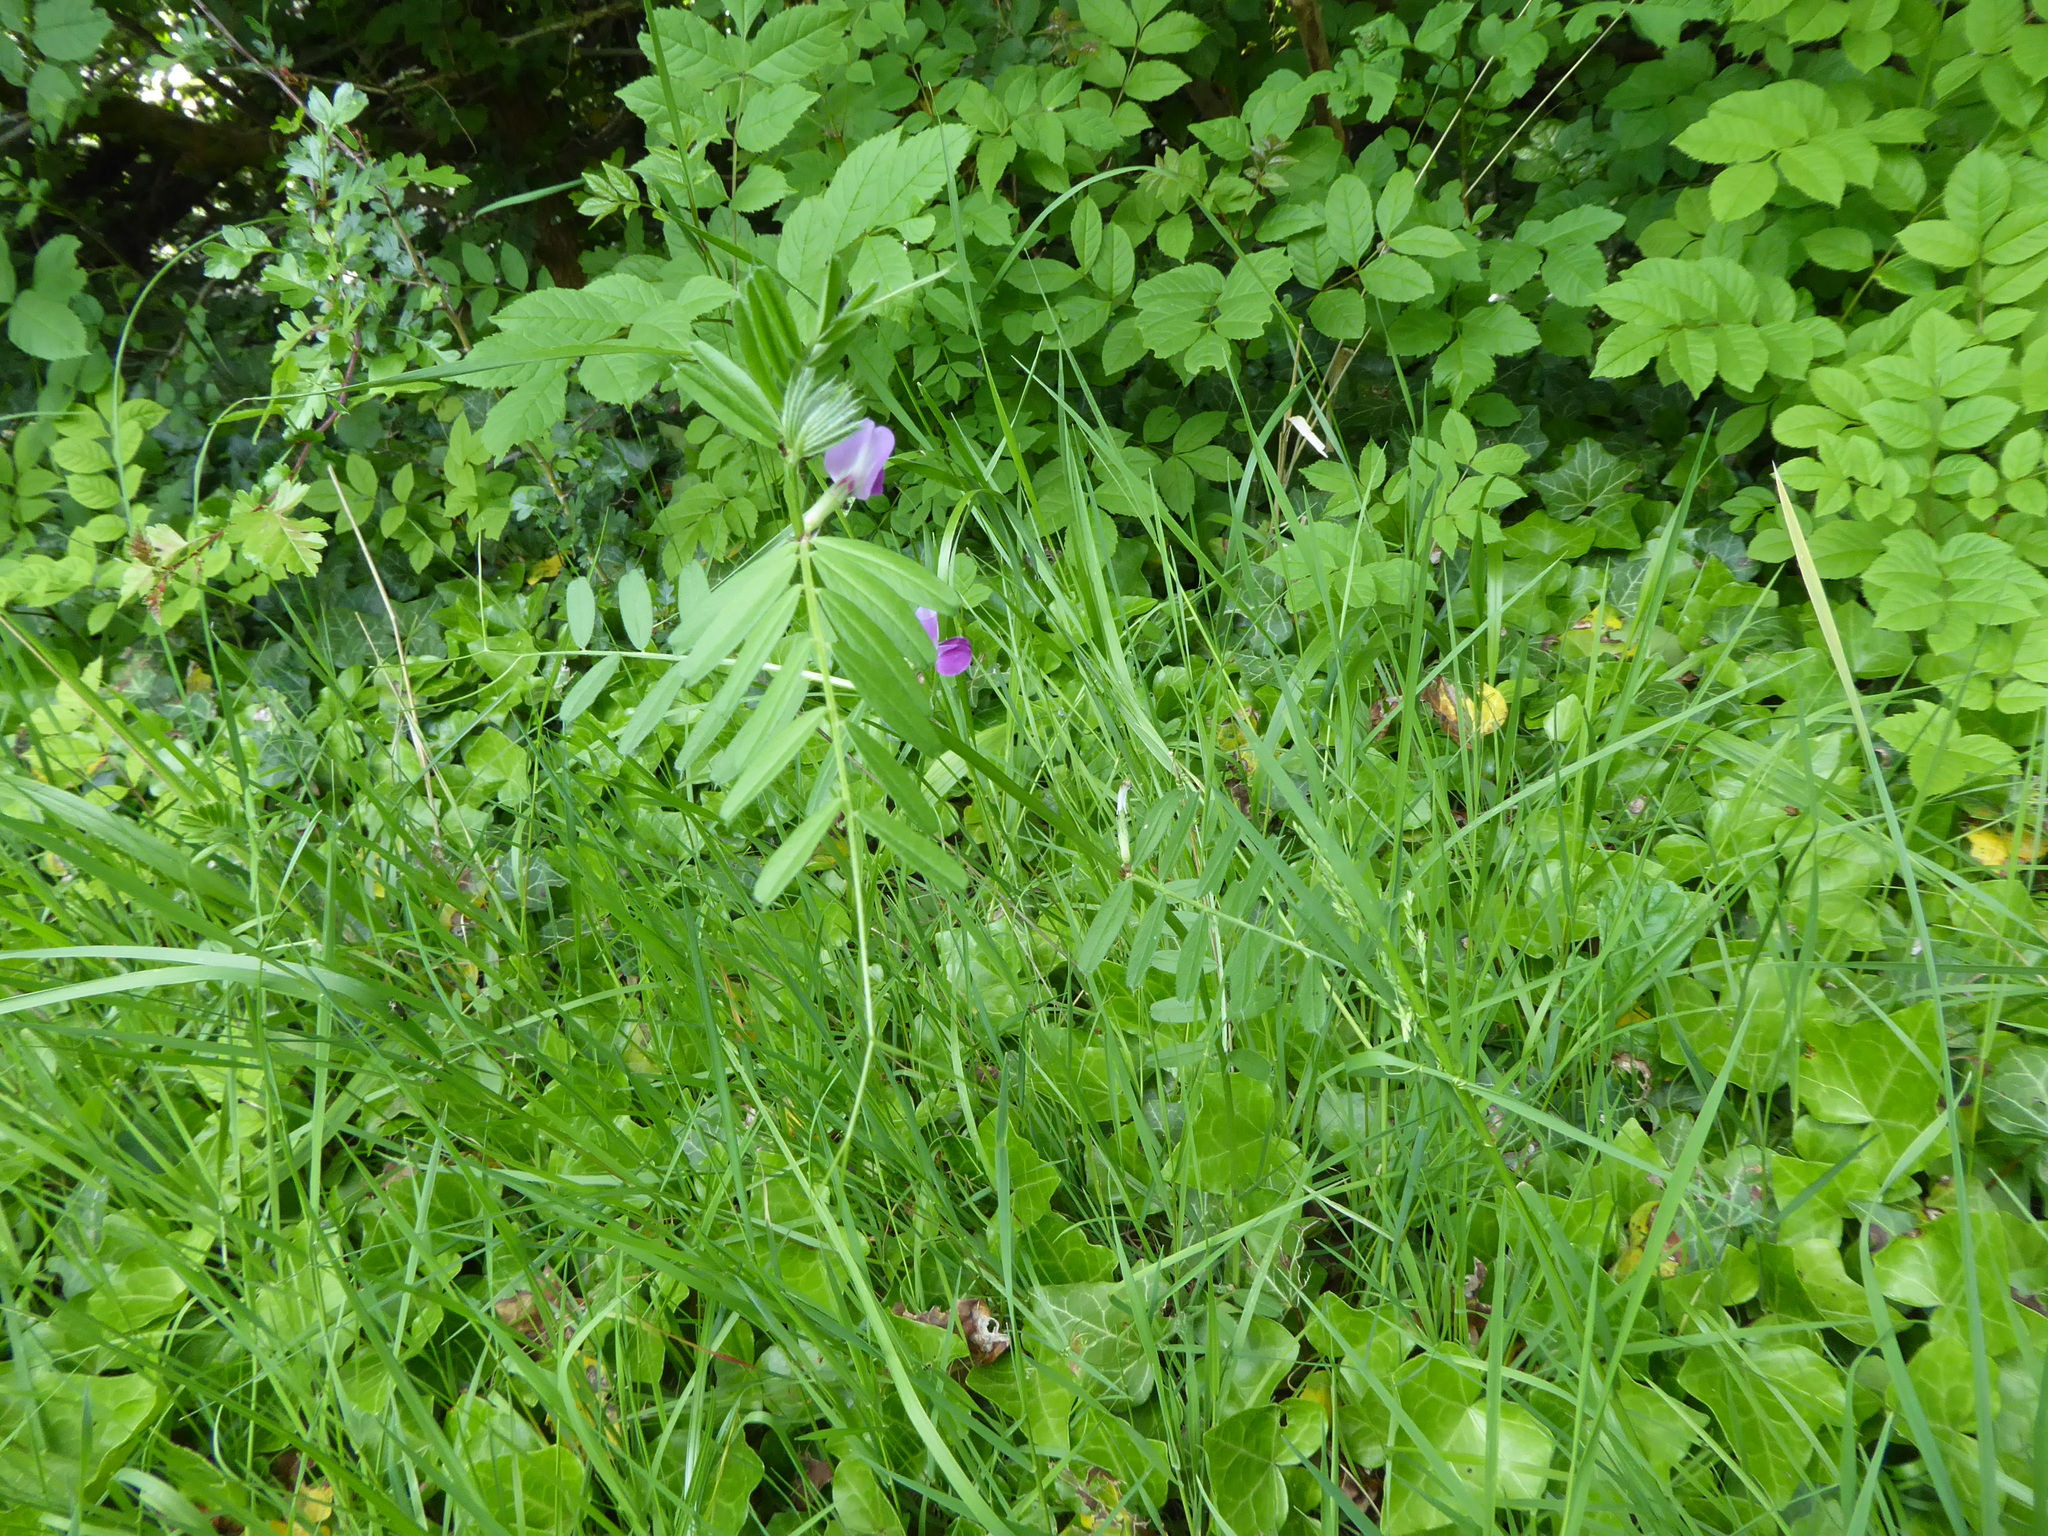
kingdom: Plantae
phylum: Tracheophyta
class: Magnoliopsida
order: Fabales
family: Fabaceae
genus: Vicia
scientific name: Vicia sativa
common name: Garden vetch
